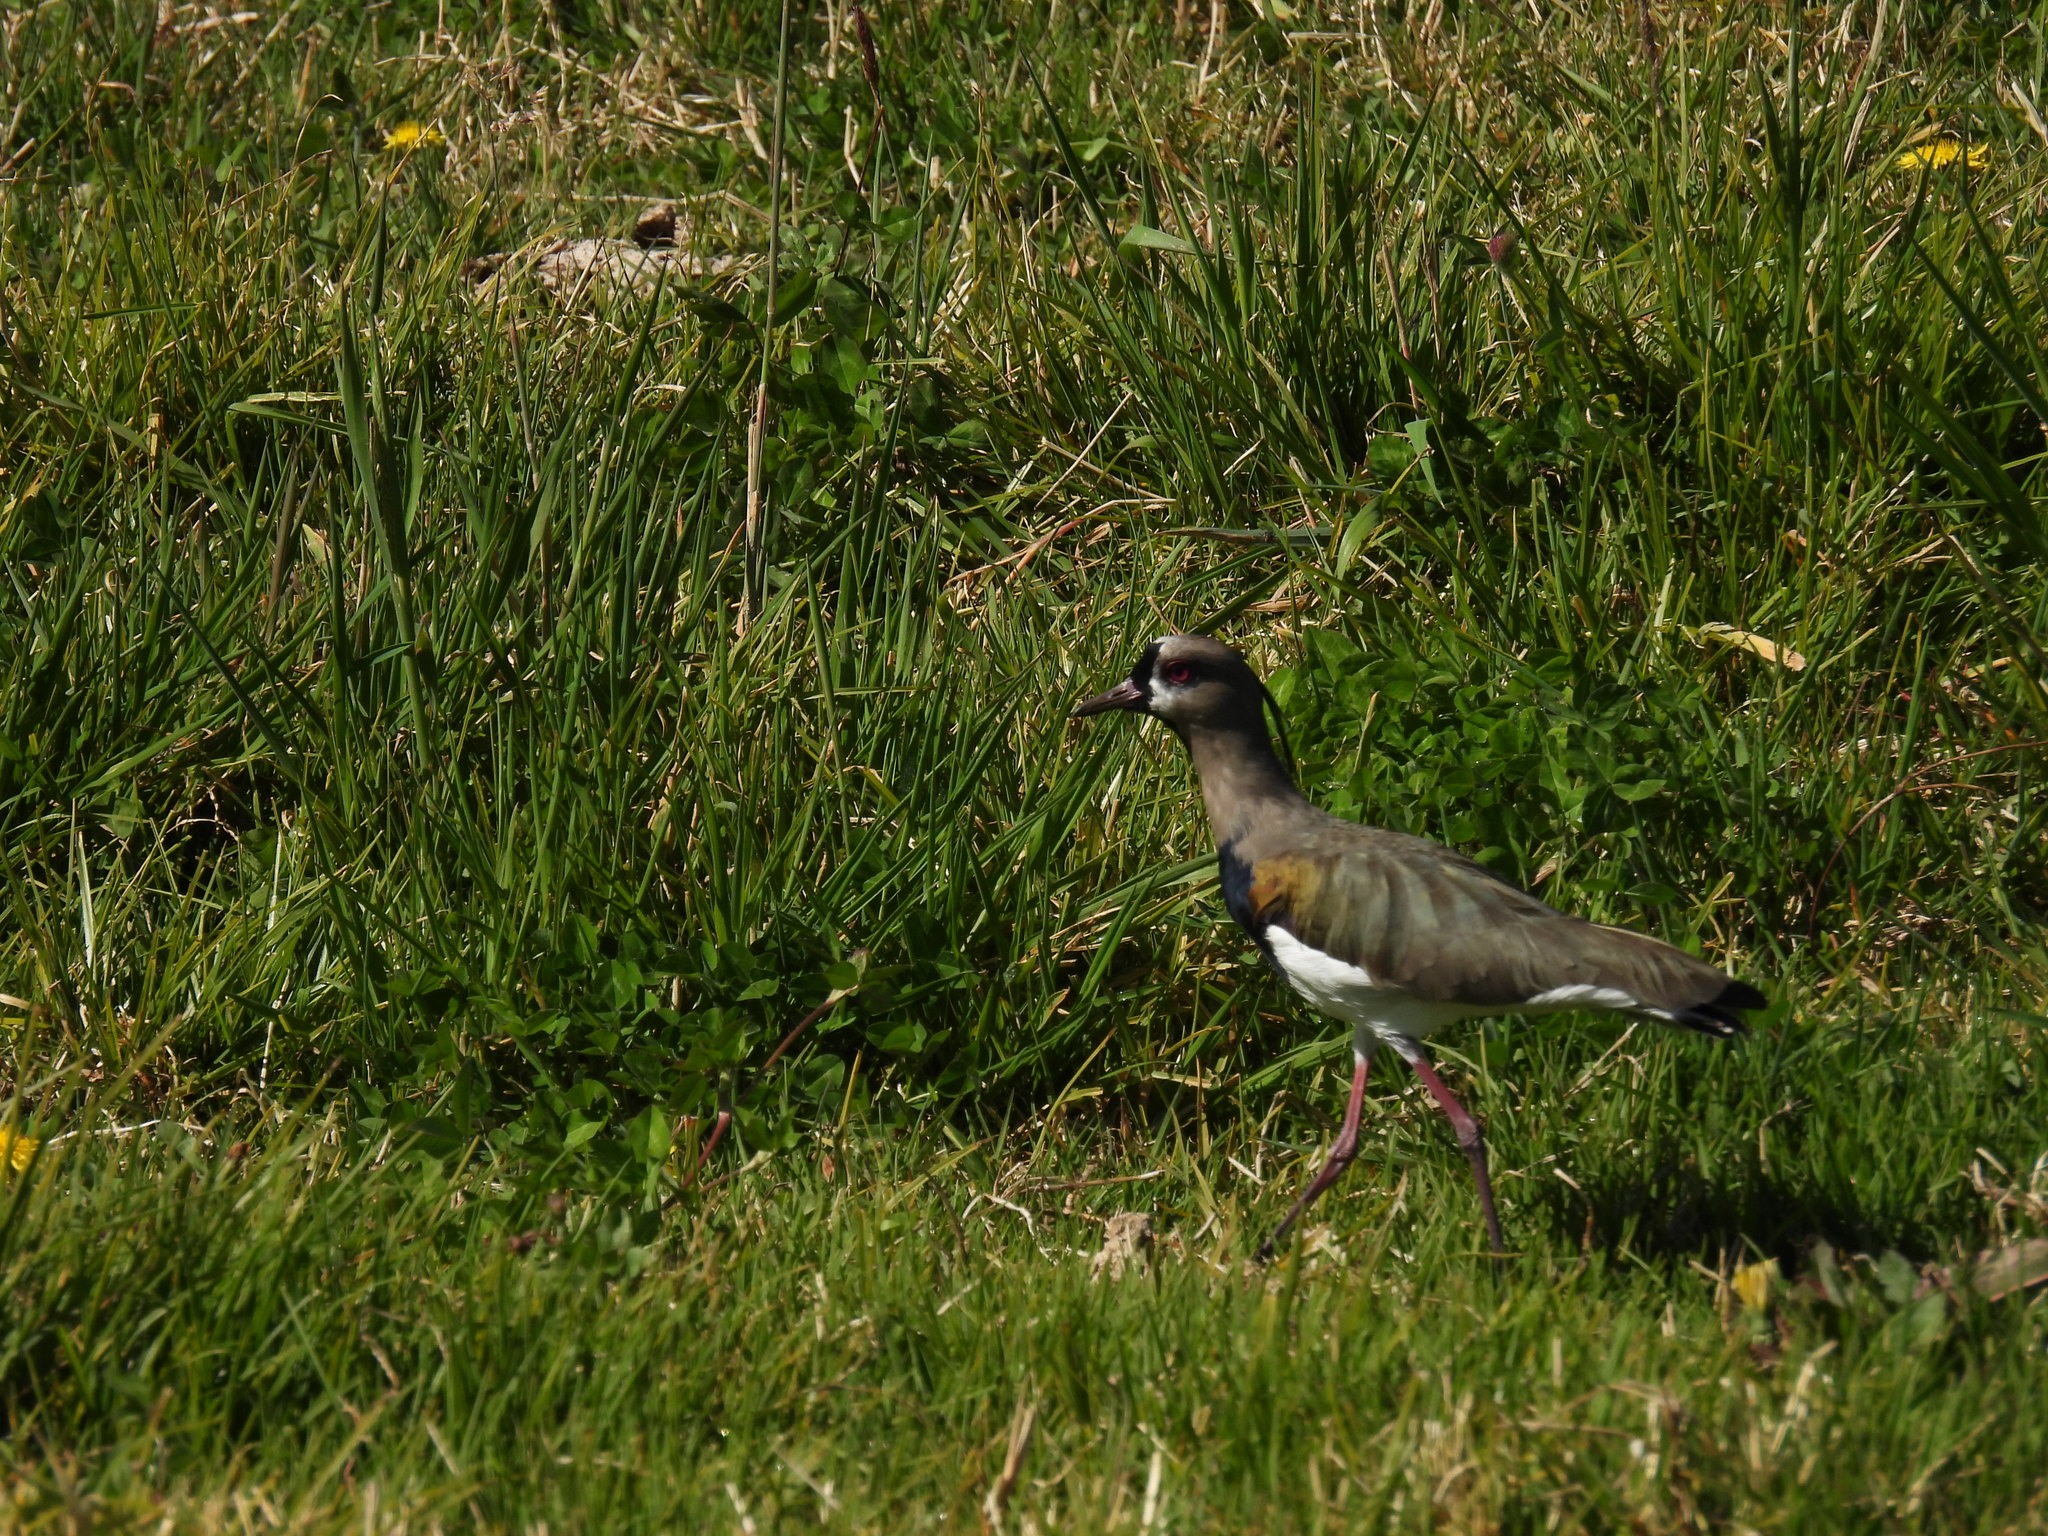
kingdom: Animalia
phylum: Chordata
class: Aves
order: Charadriiformes
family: Charadriidae
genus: Vanellus
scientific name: Vanellus chilensis
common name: Southern lapwing
